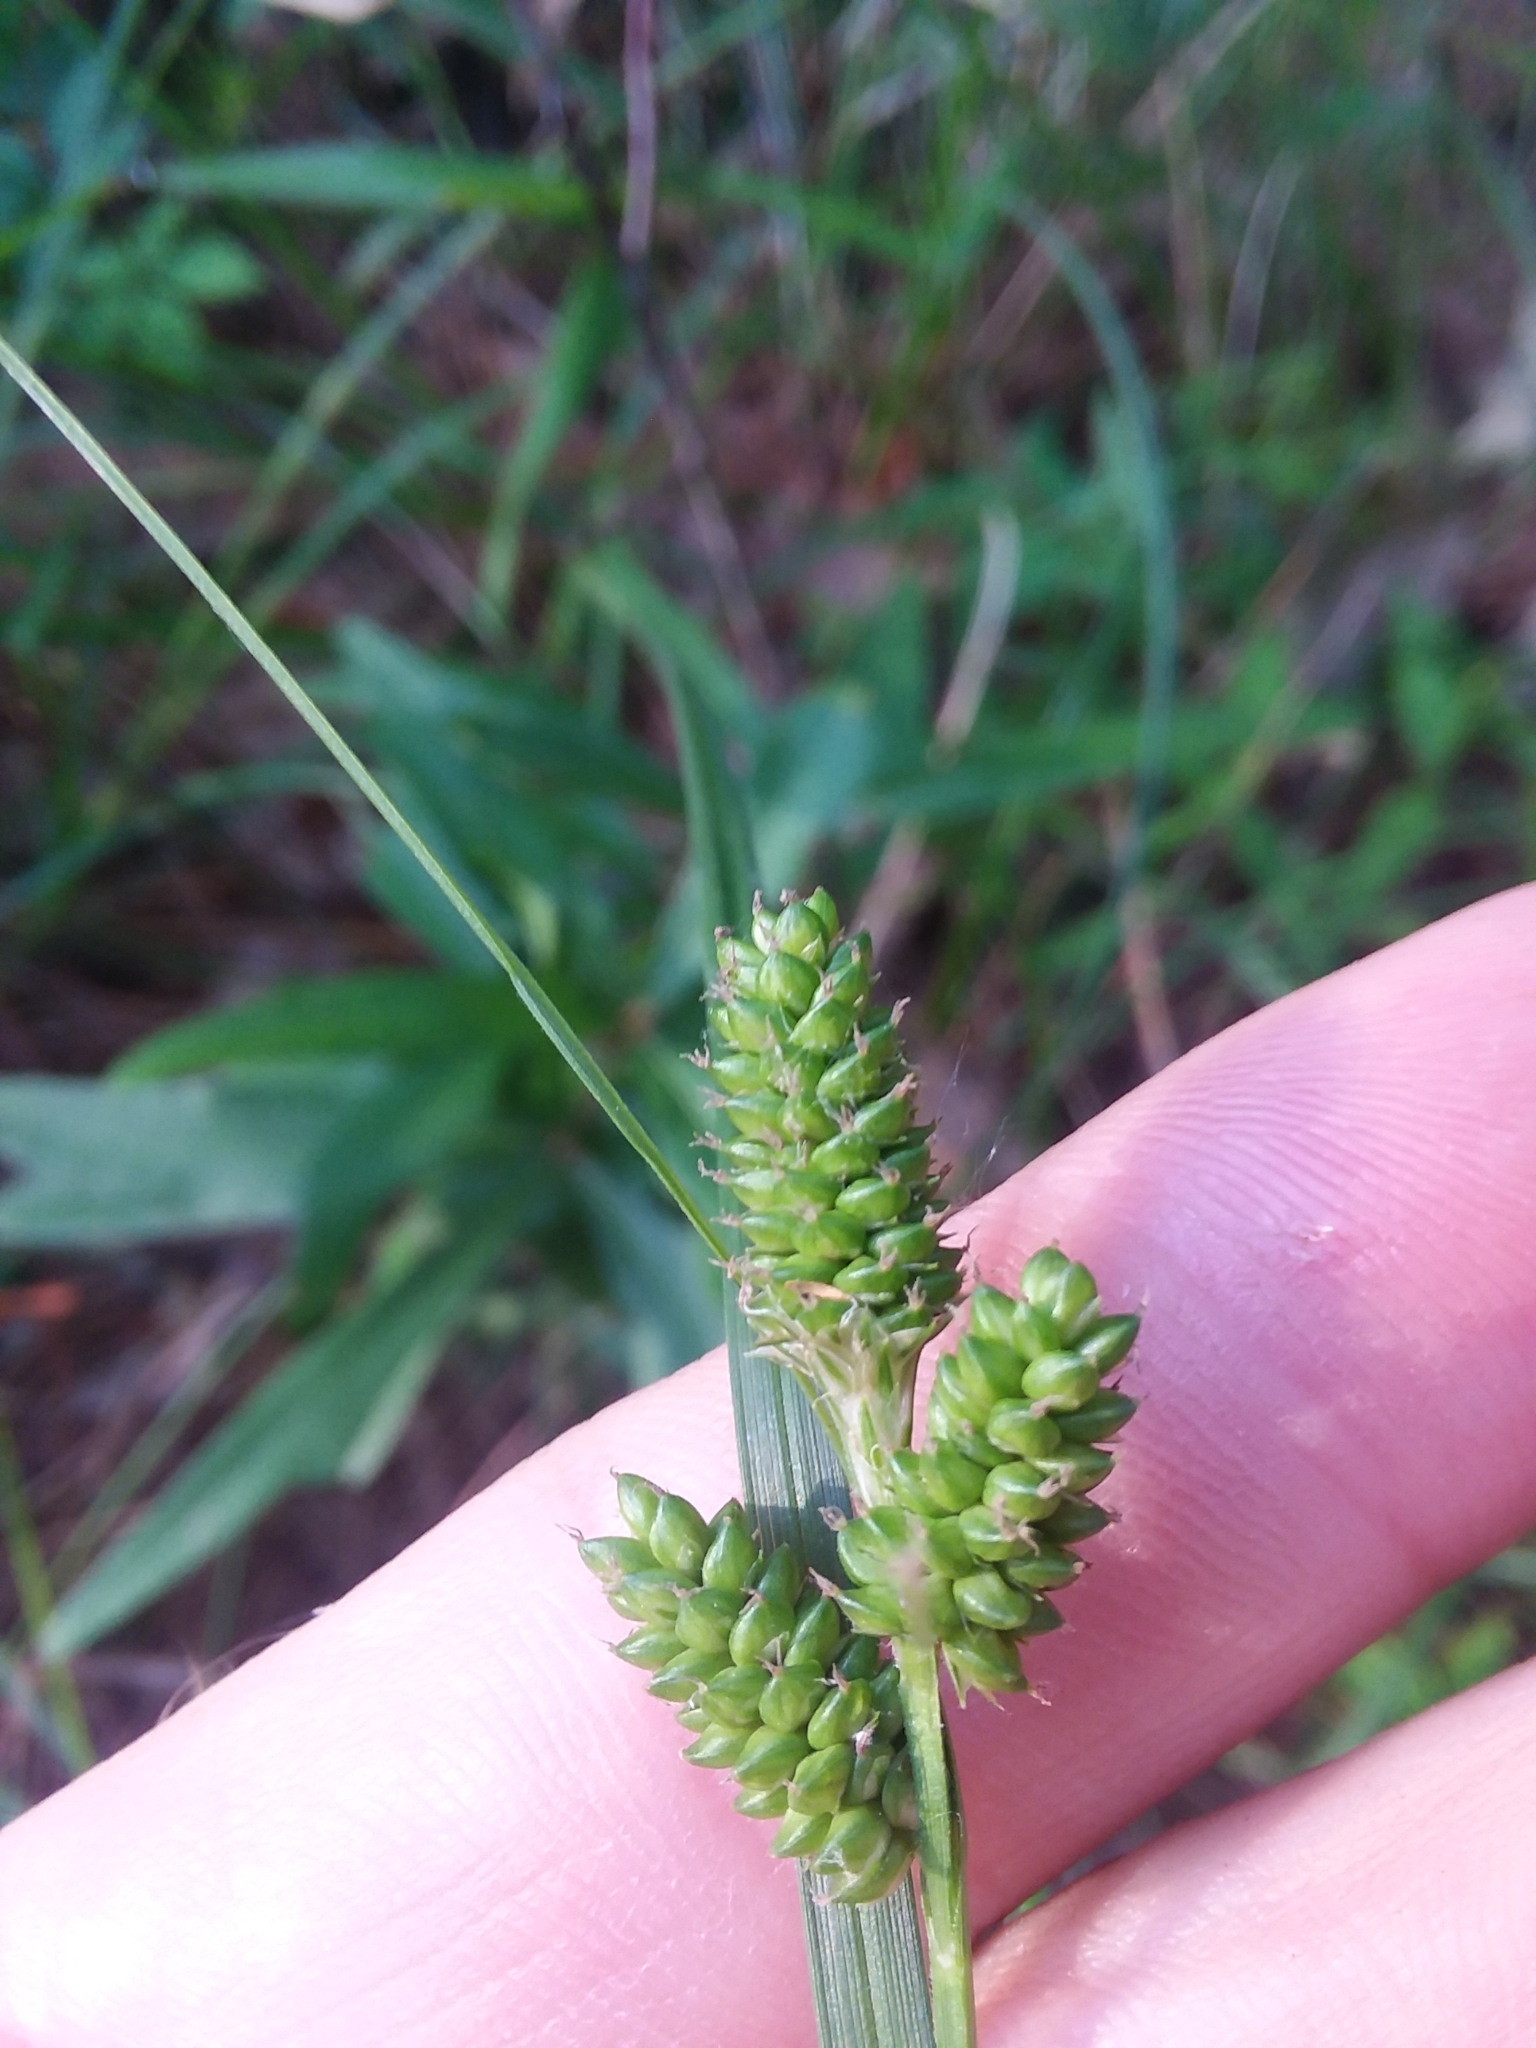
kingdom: Plantae
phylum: Tracheophyta
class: Liliopsida
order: Poales
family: Cyperaceae
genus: Carex
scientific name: Carex complanata
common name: Hirsute sedge
